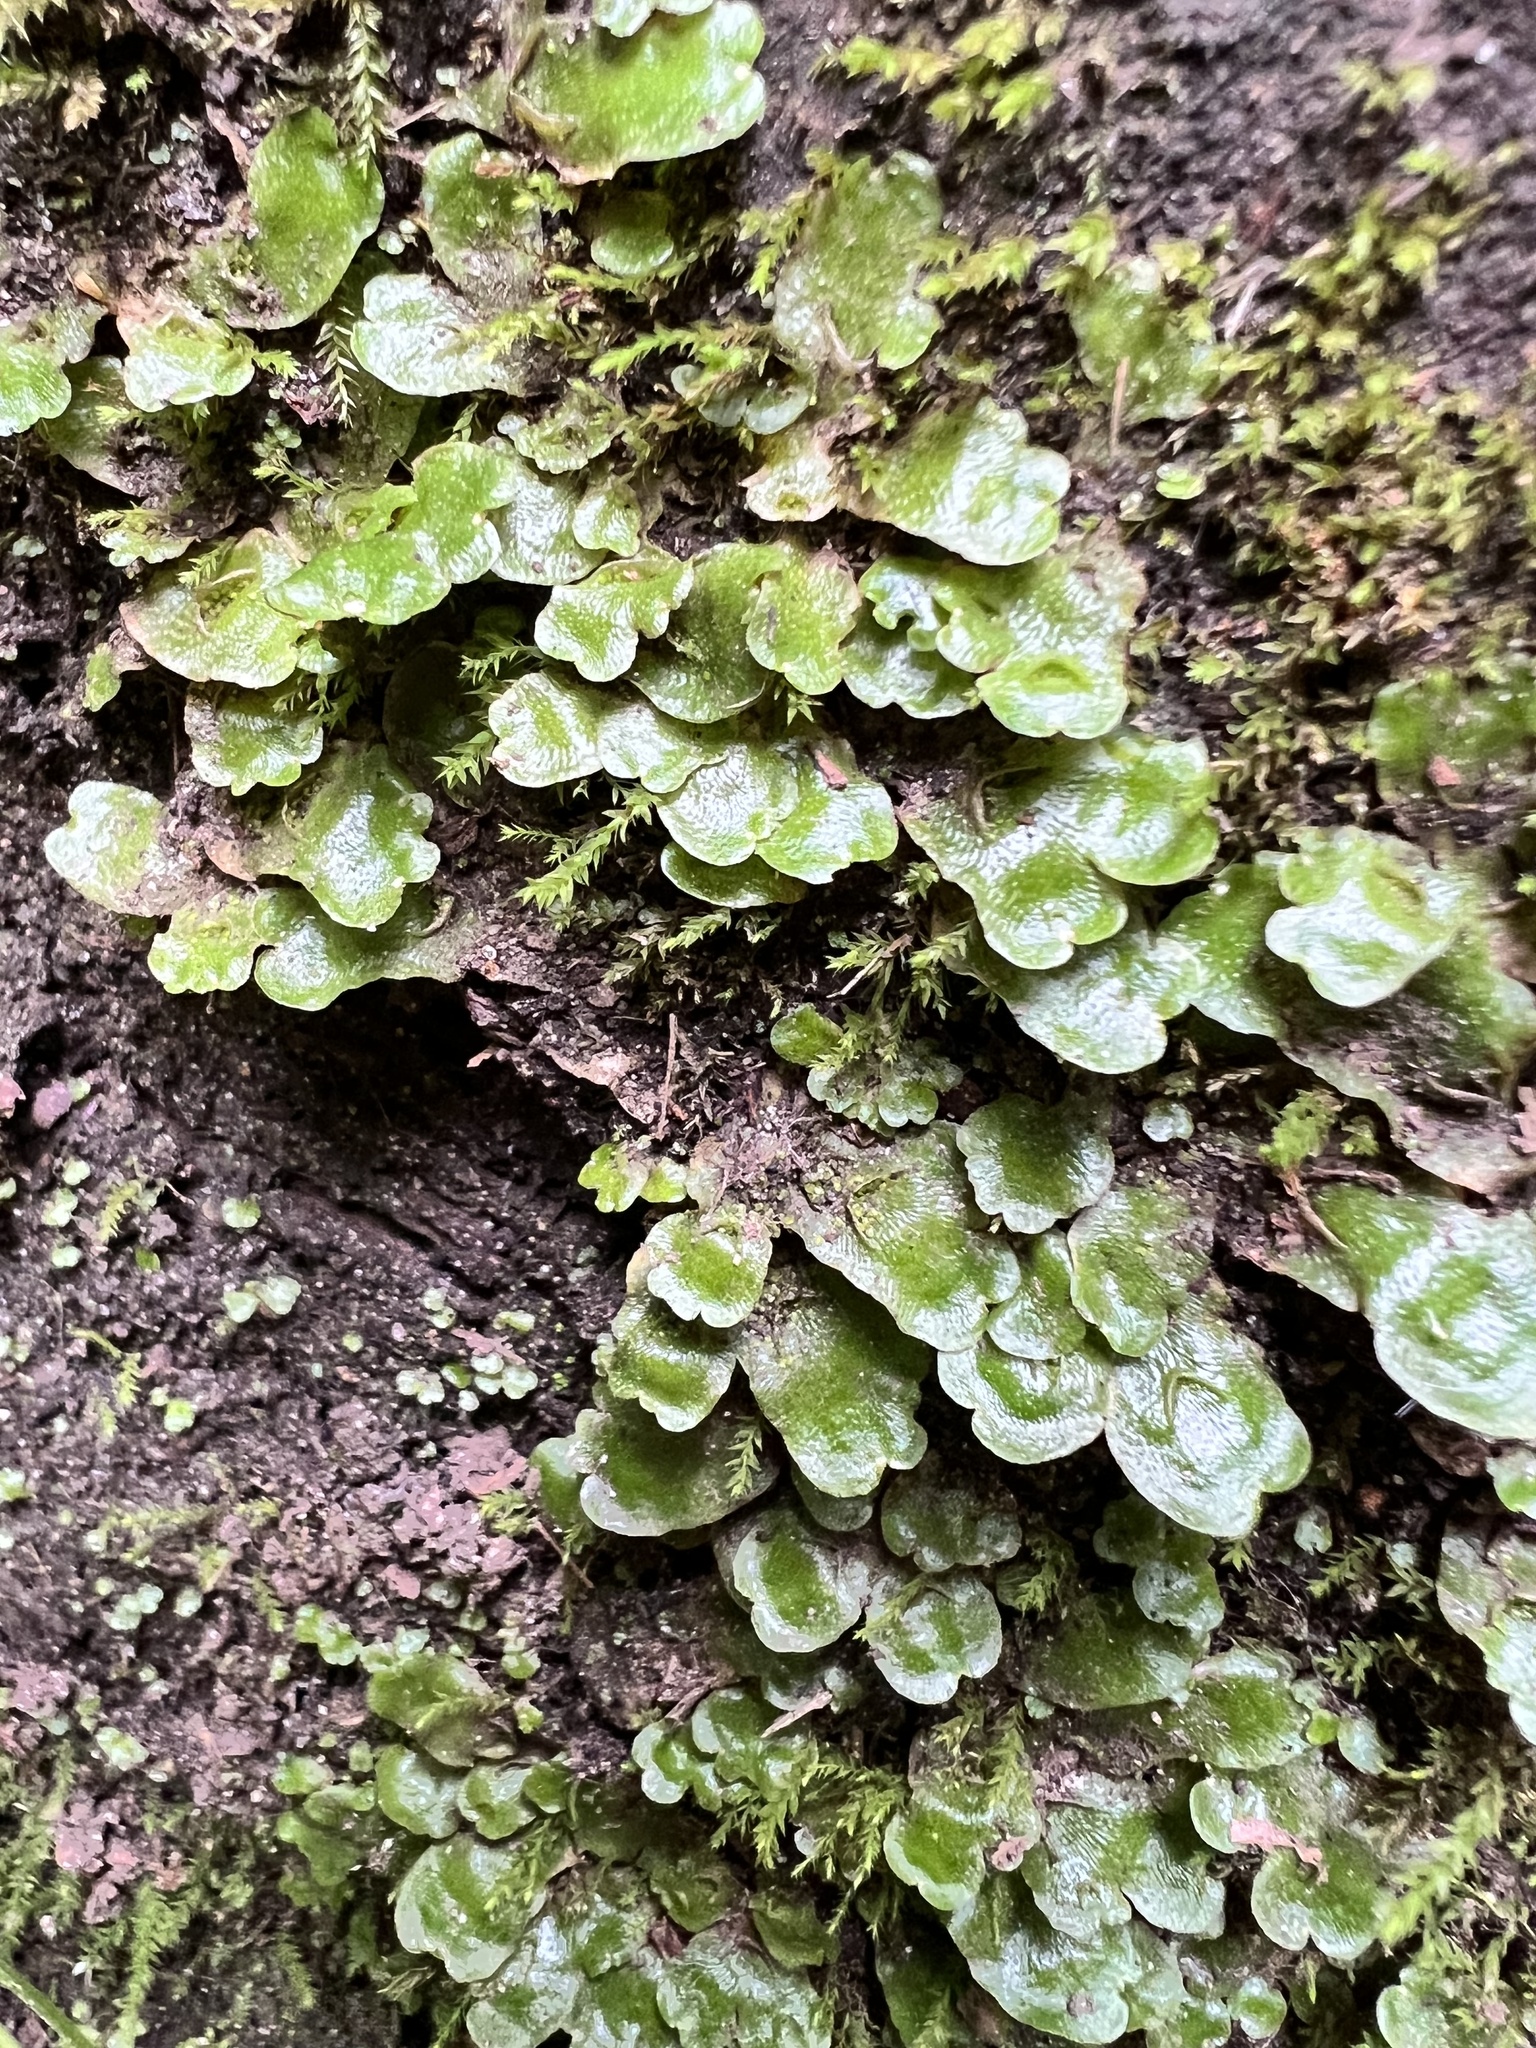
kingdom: Plantae
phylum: Marchantiophyta
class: Marchantiopsida
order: Lunulariales
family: Lunulariaceae
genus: Lunularia
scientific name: Lunularia cruciata
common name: Crescent-cup liverwort
